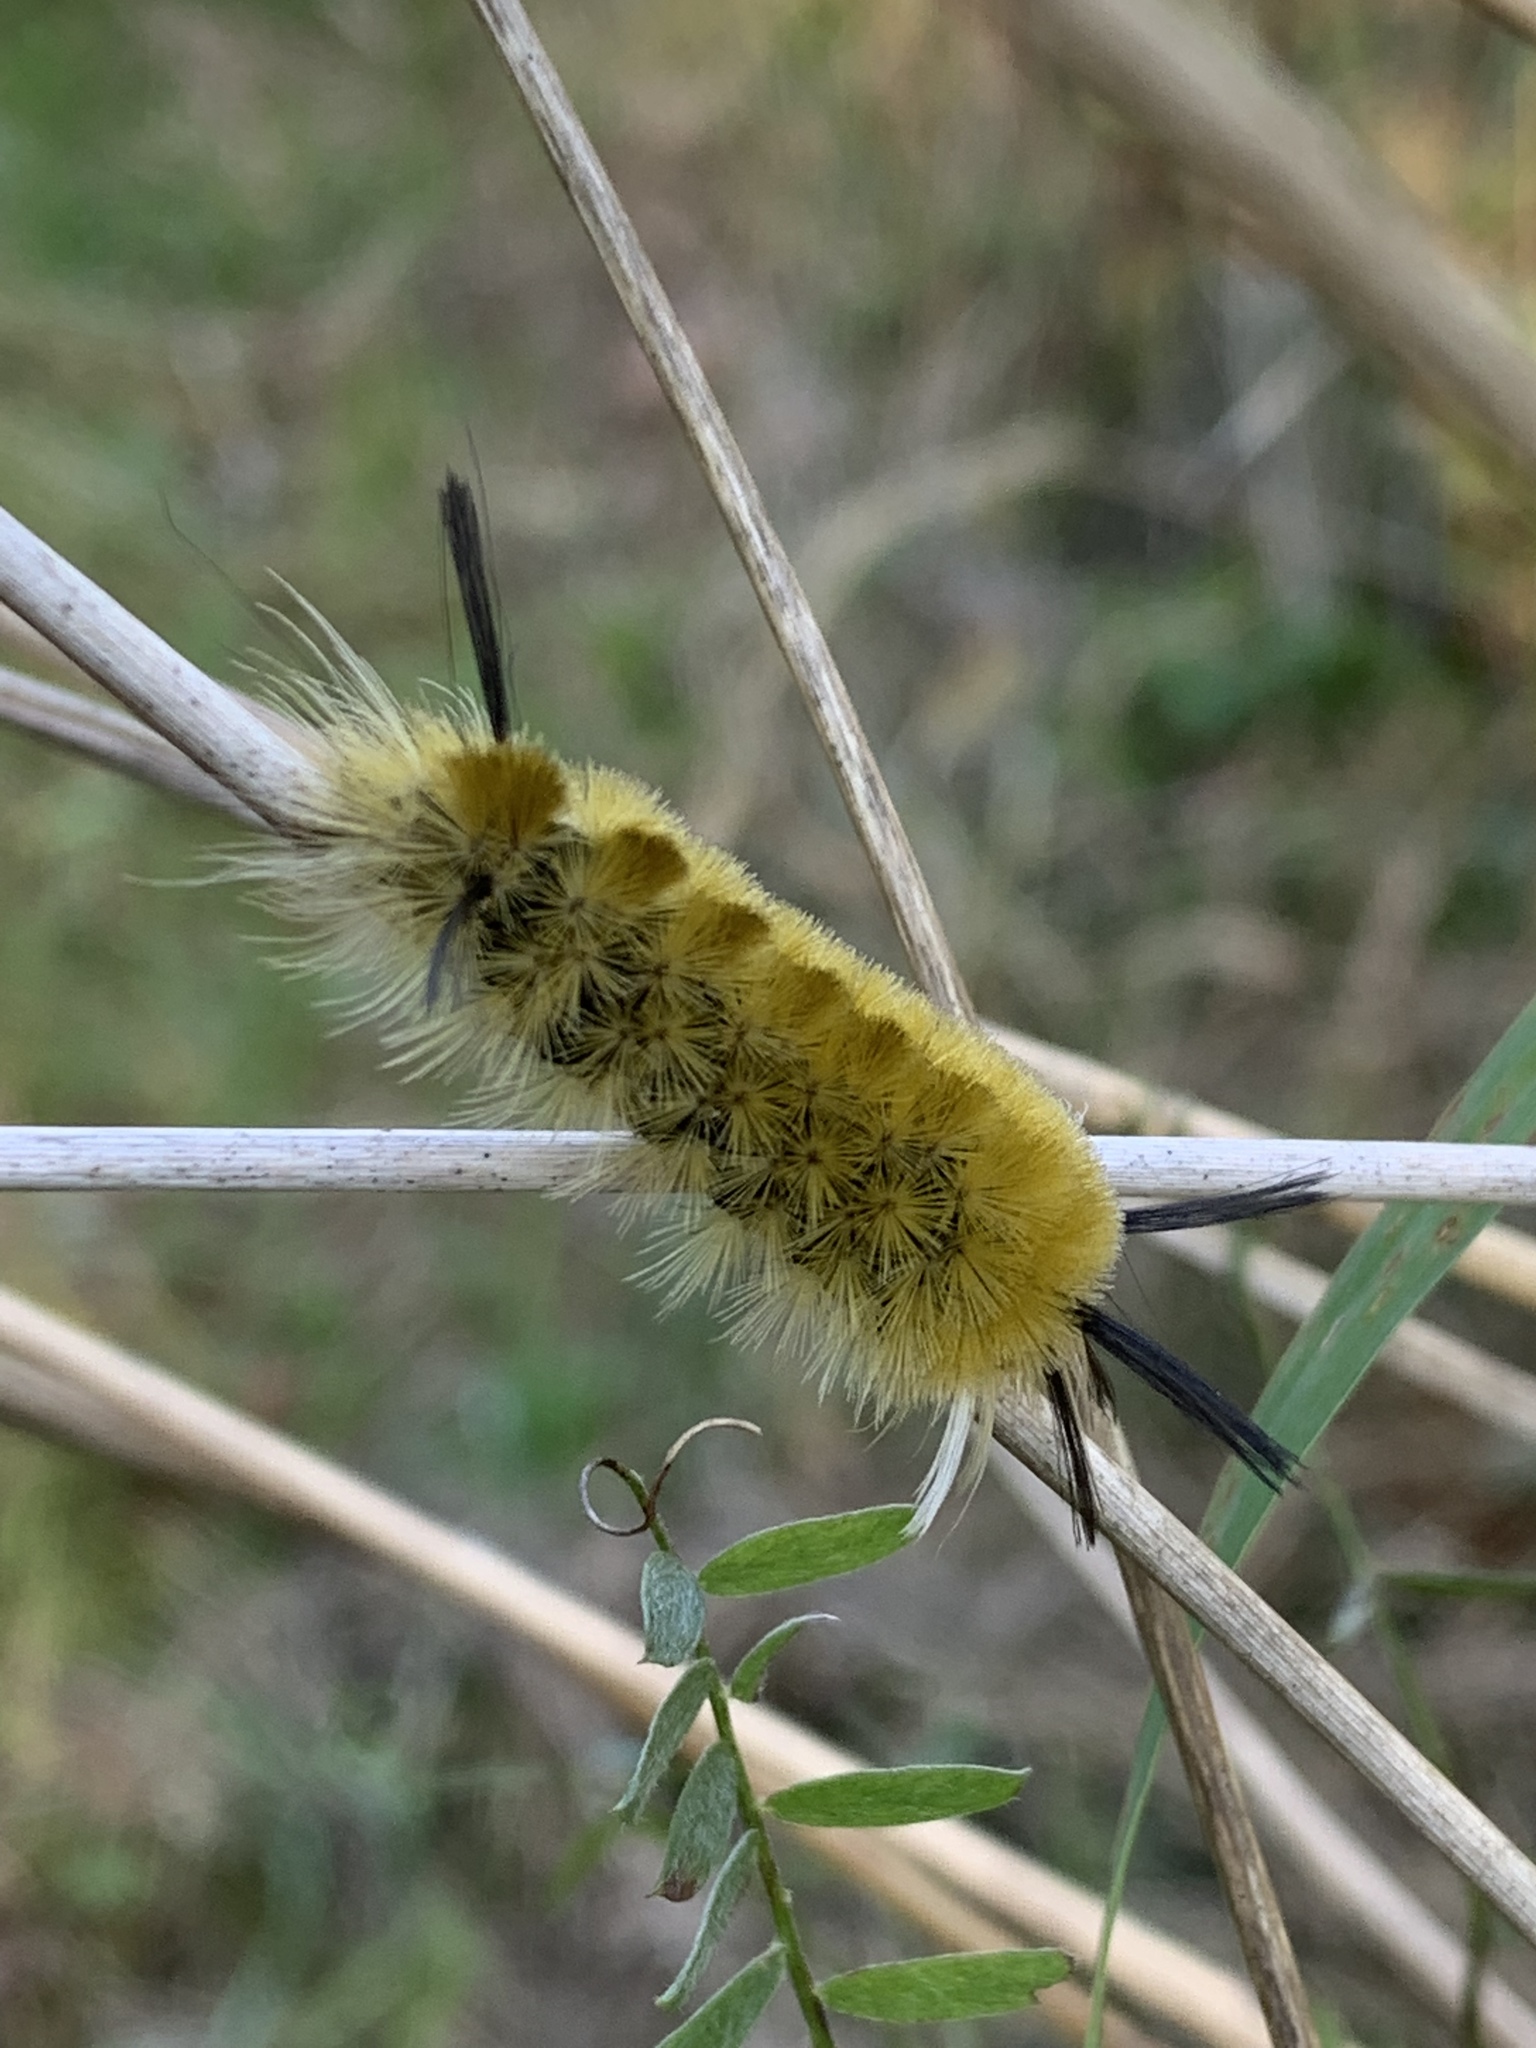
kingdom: Animalia
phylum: Arthropoda
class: Insecta
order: Lepidoptera
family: Erebidae
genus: Halysidota
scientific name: Halysidota tessellaris
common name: Banded tussock moth
